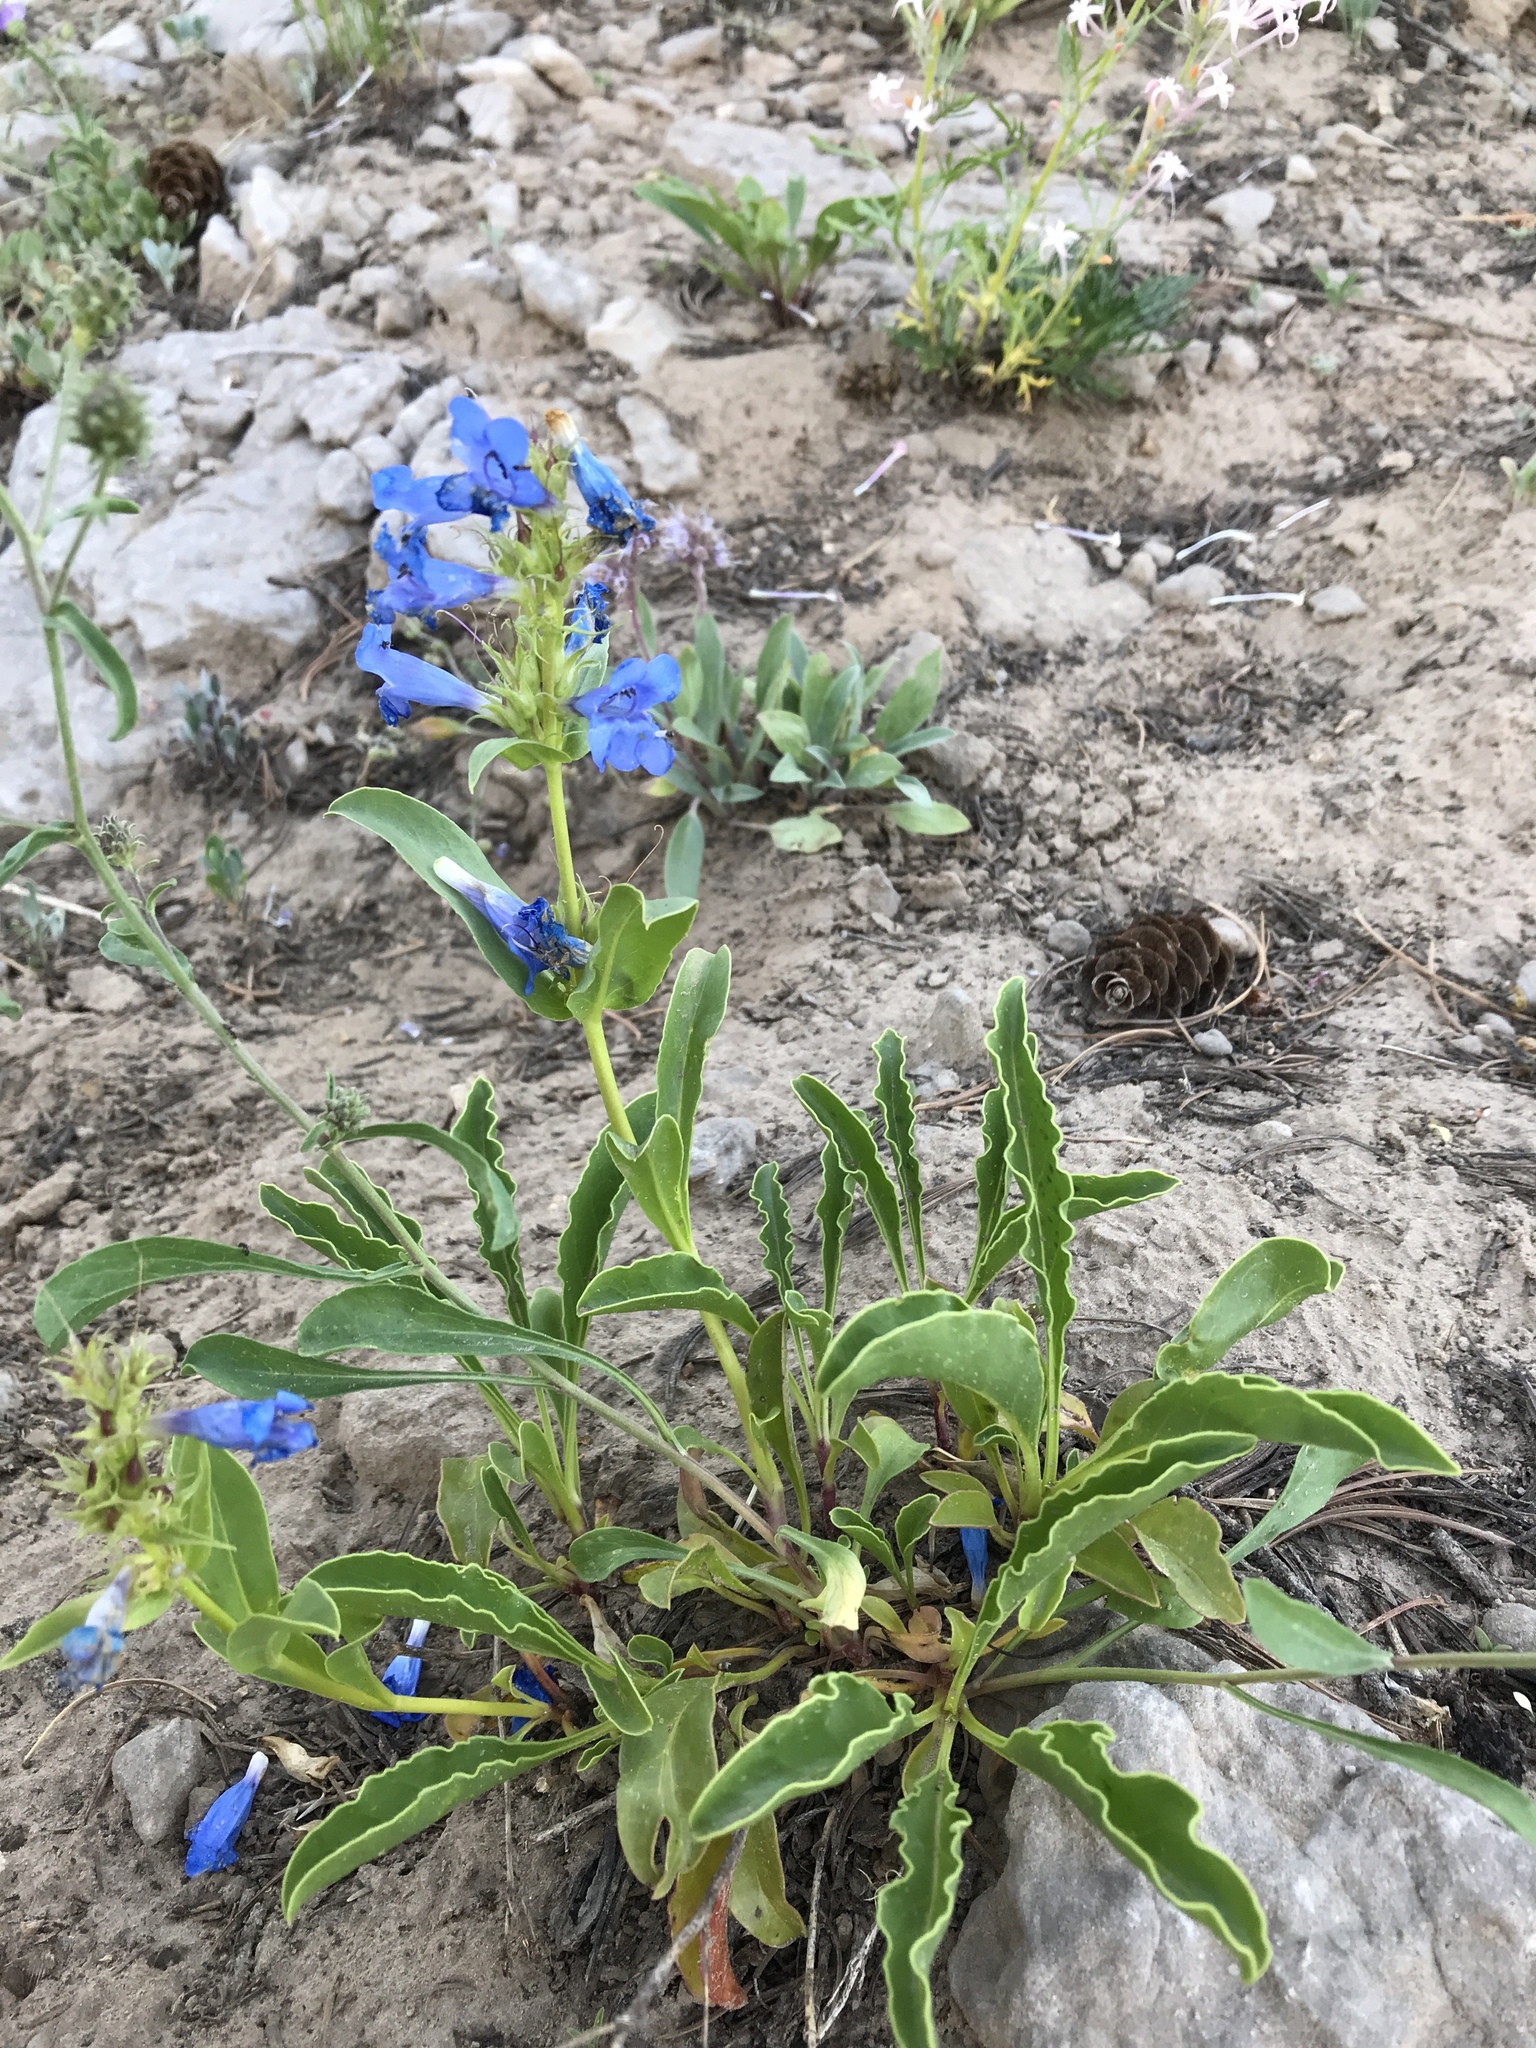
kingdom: Plantae
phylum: Tracheophyta
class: Magnoliopsida
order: Lamiales
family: Plantaginaceae
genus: Penstemon
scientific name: Penstemon compactus
